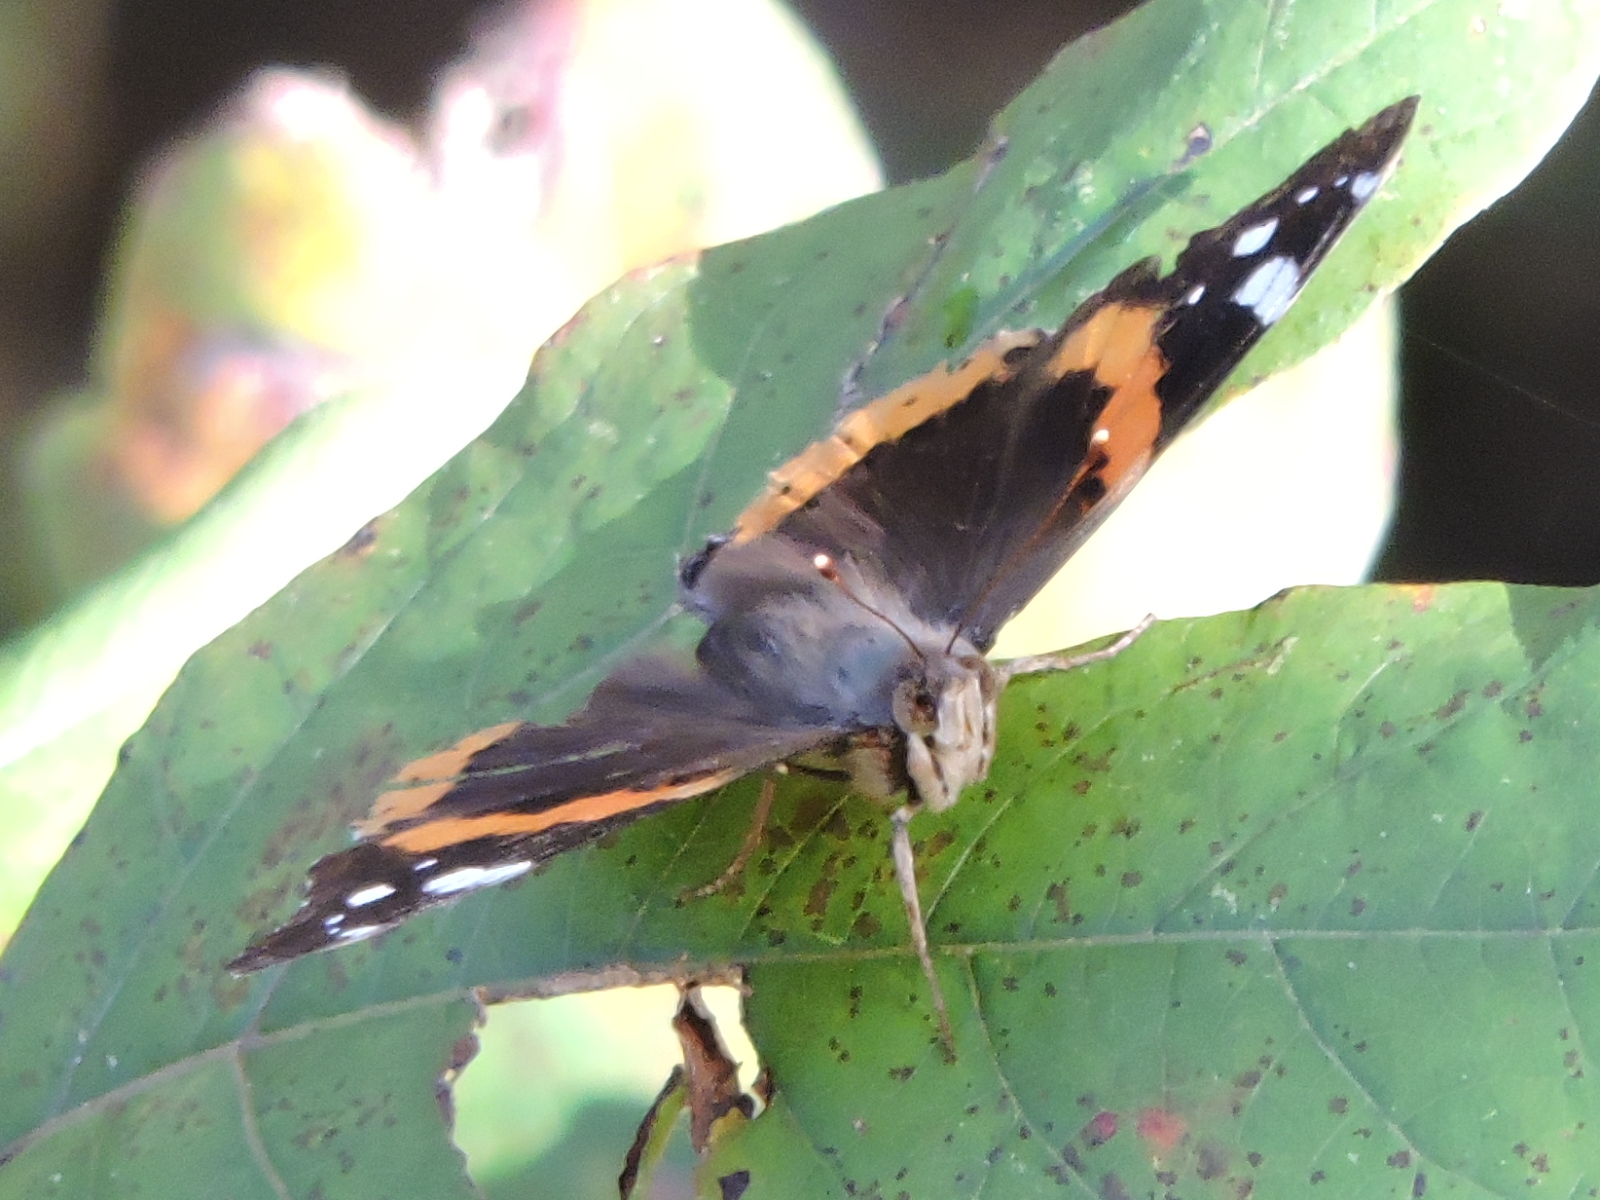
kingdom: Animalia
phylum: Arthropoda
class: Insecta
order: Lepidoptera
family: Nymphalidae
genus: Vanessa
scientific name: Vanessa atalanta
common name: Red admiral
